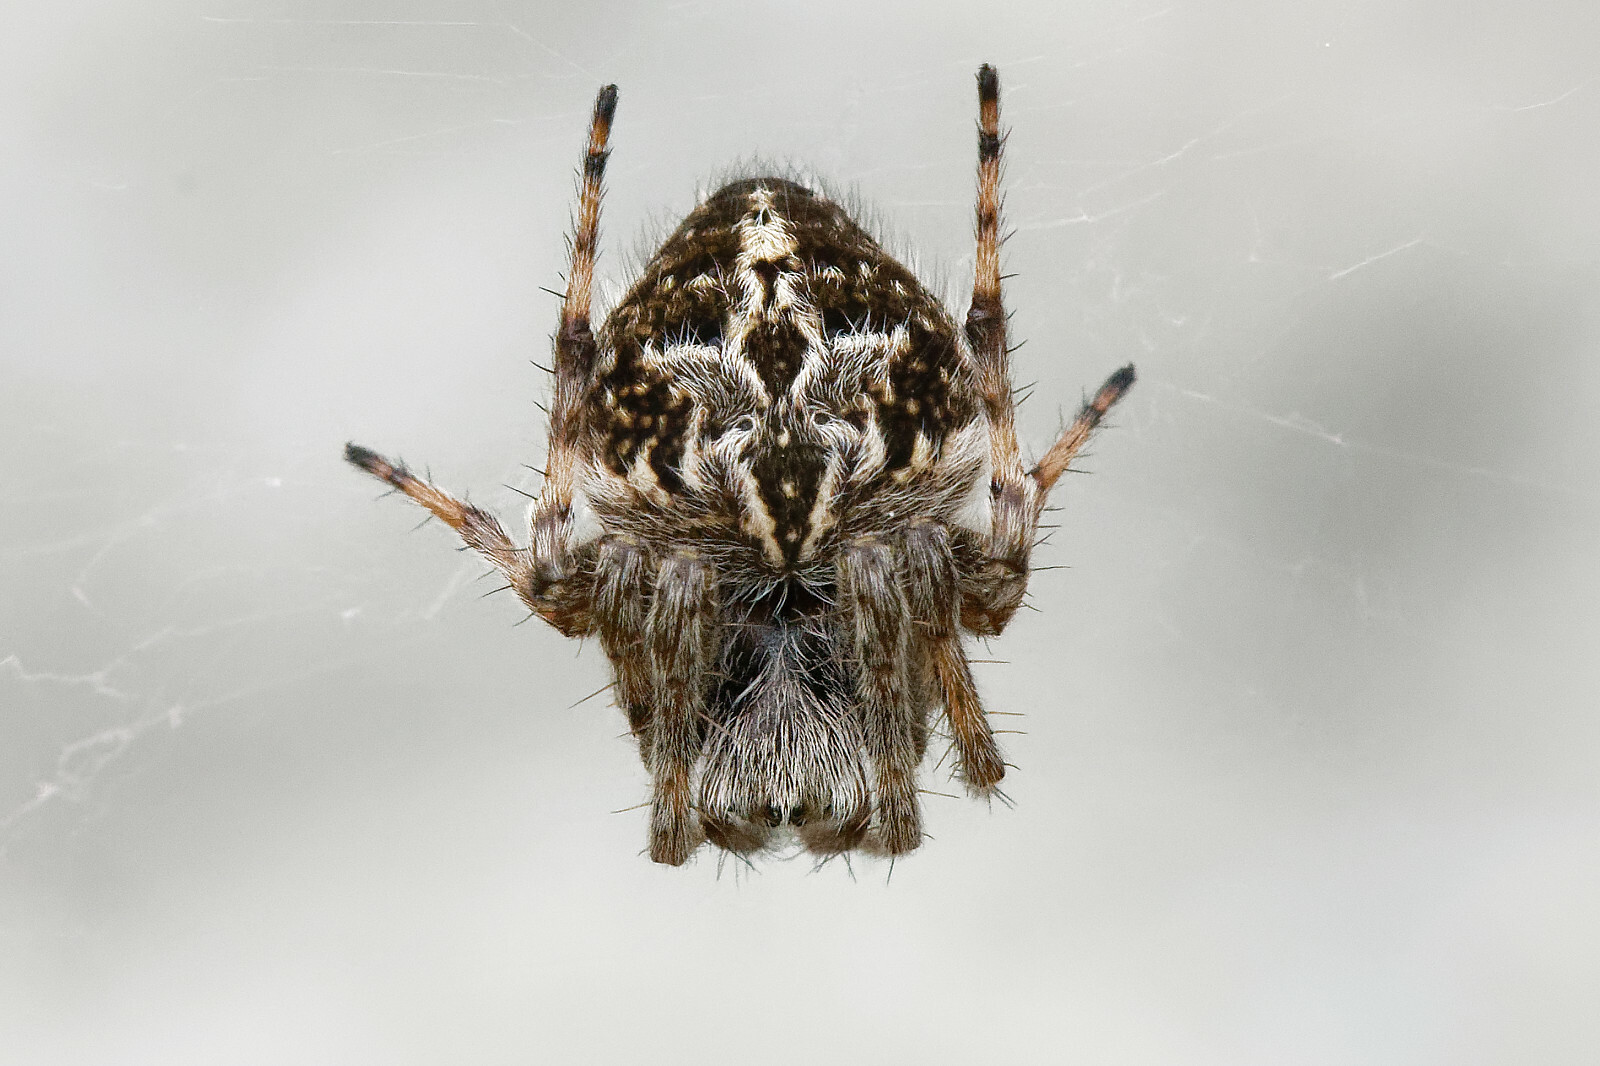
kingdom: Animalia
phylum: Arthropoda
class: Arachnida
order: Araneae
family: Araneidae
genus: Agalenatea
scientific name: Agalenatea redii
